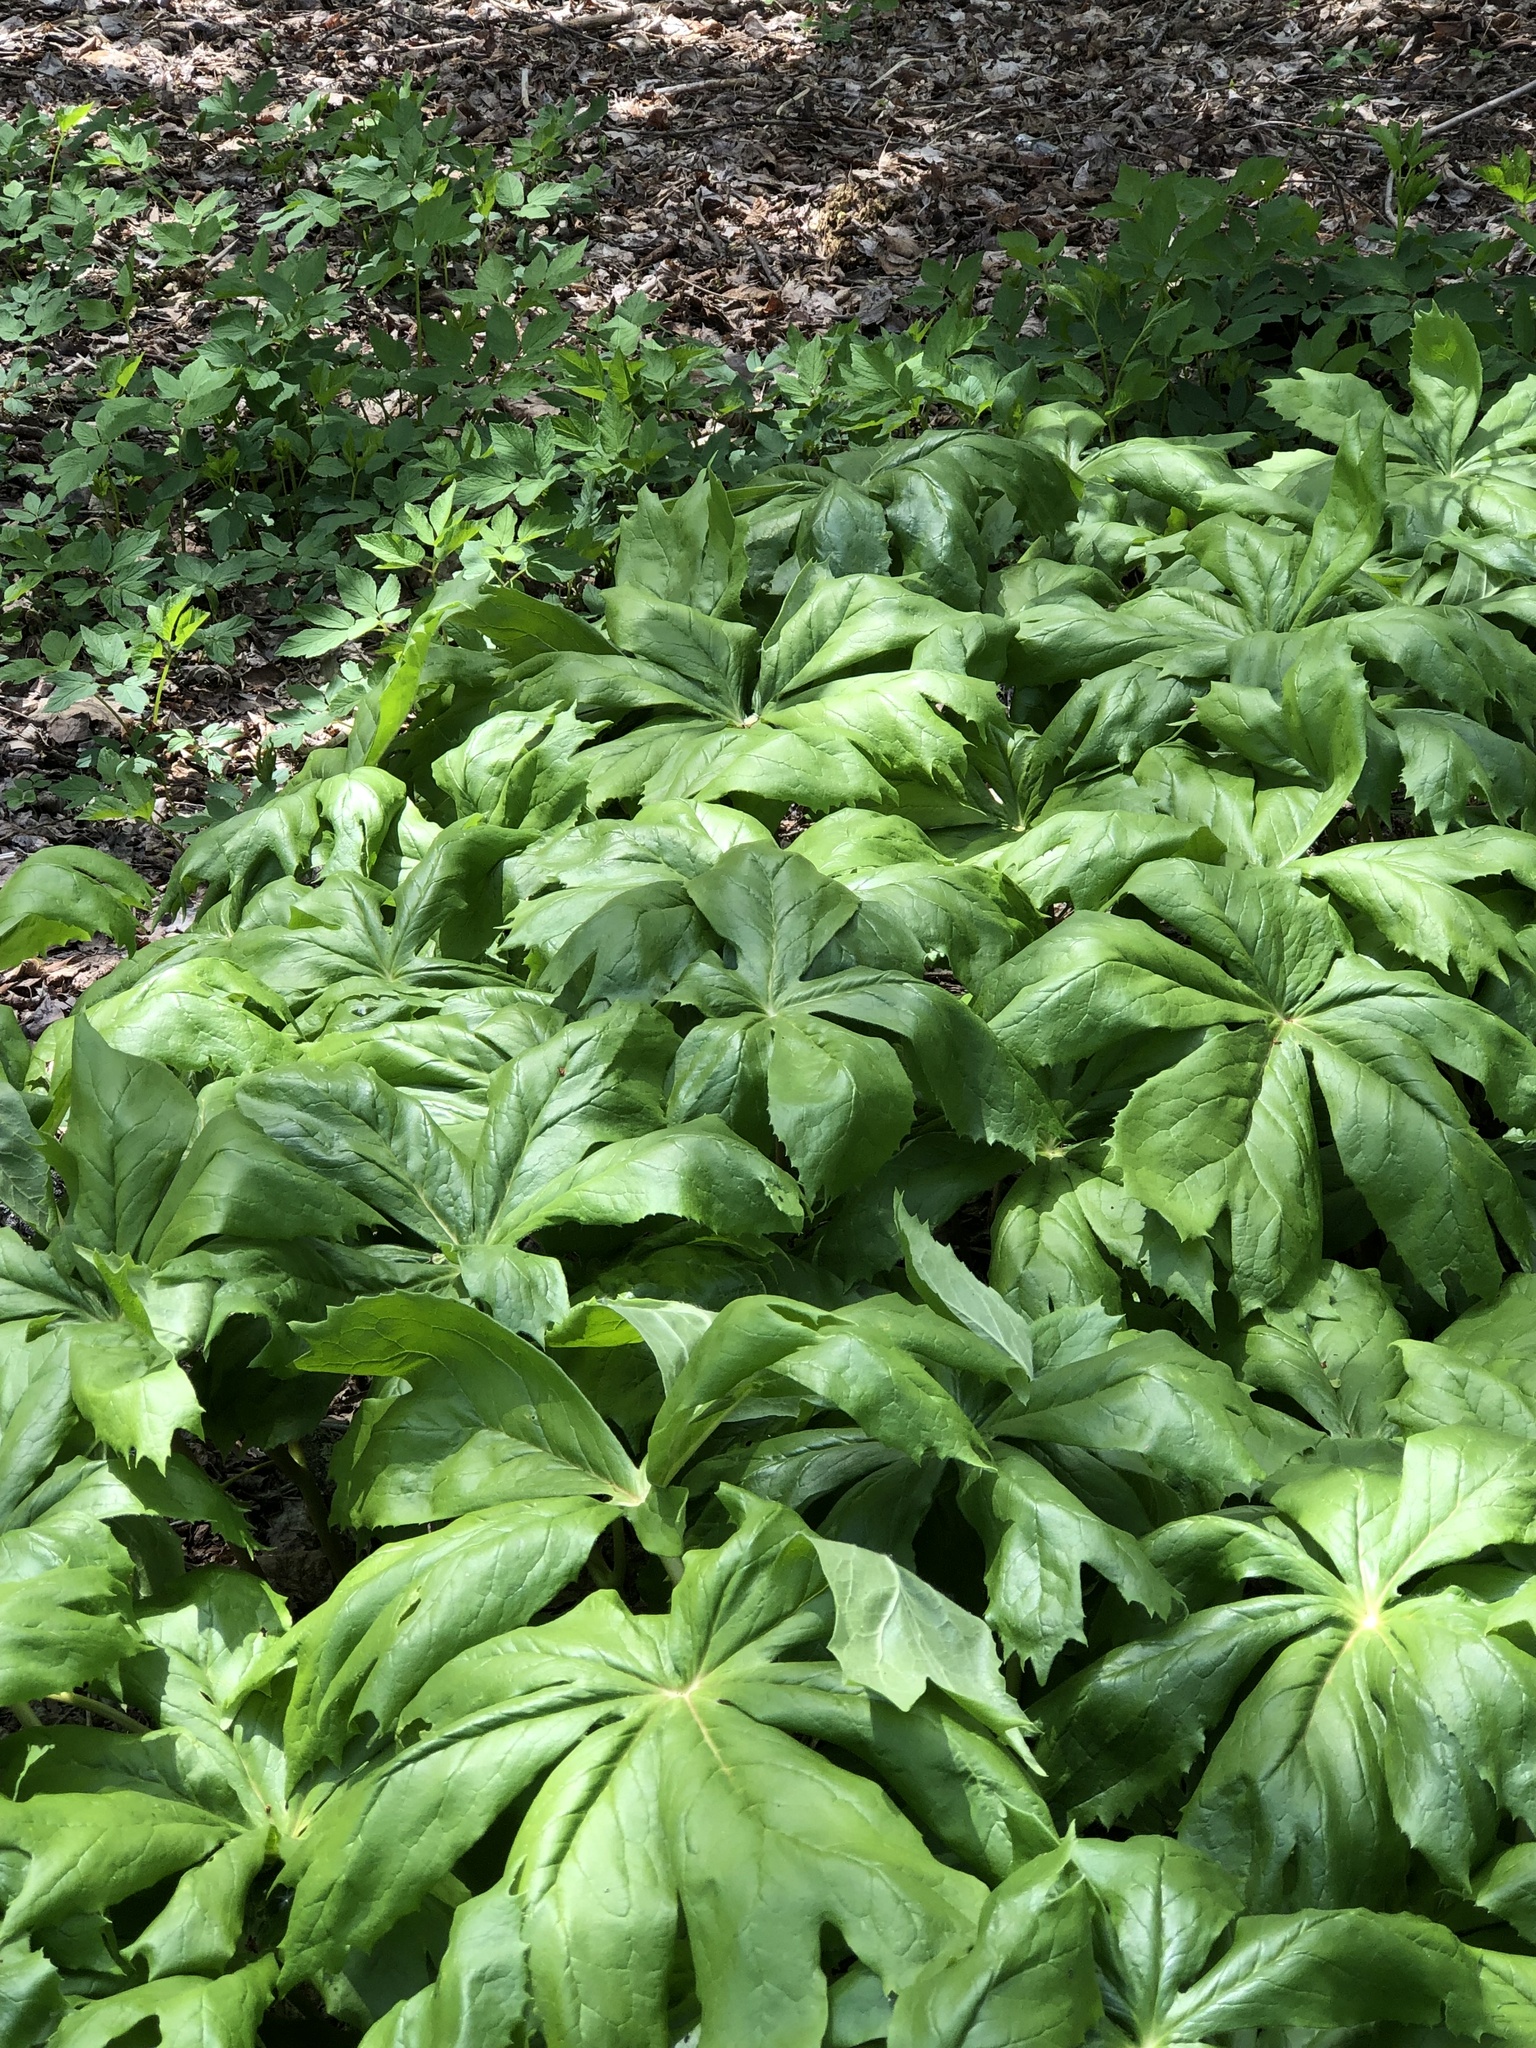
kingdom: Plantae
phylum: Tracheophyta
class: Magnoliopsida
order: Ranunculales
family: Berberidaceae
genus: Podophyllum
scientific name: Podophyllum peltatum
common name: Wild mandrake
